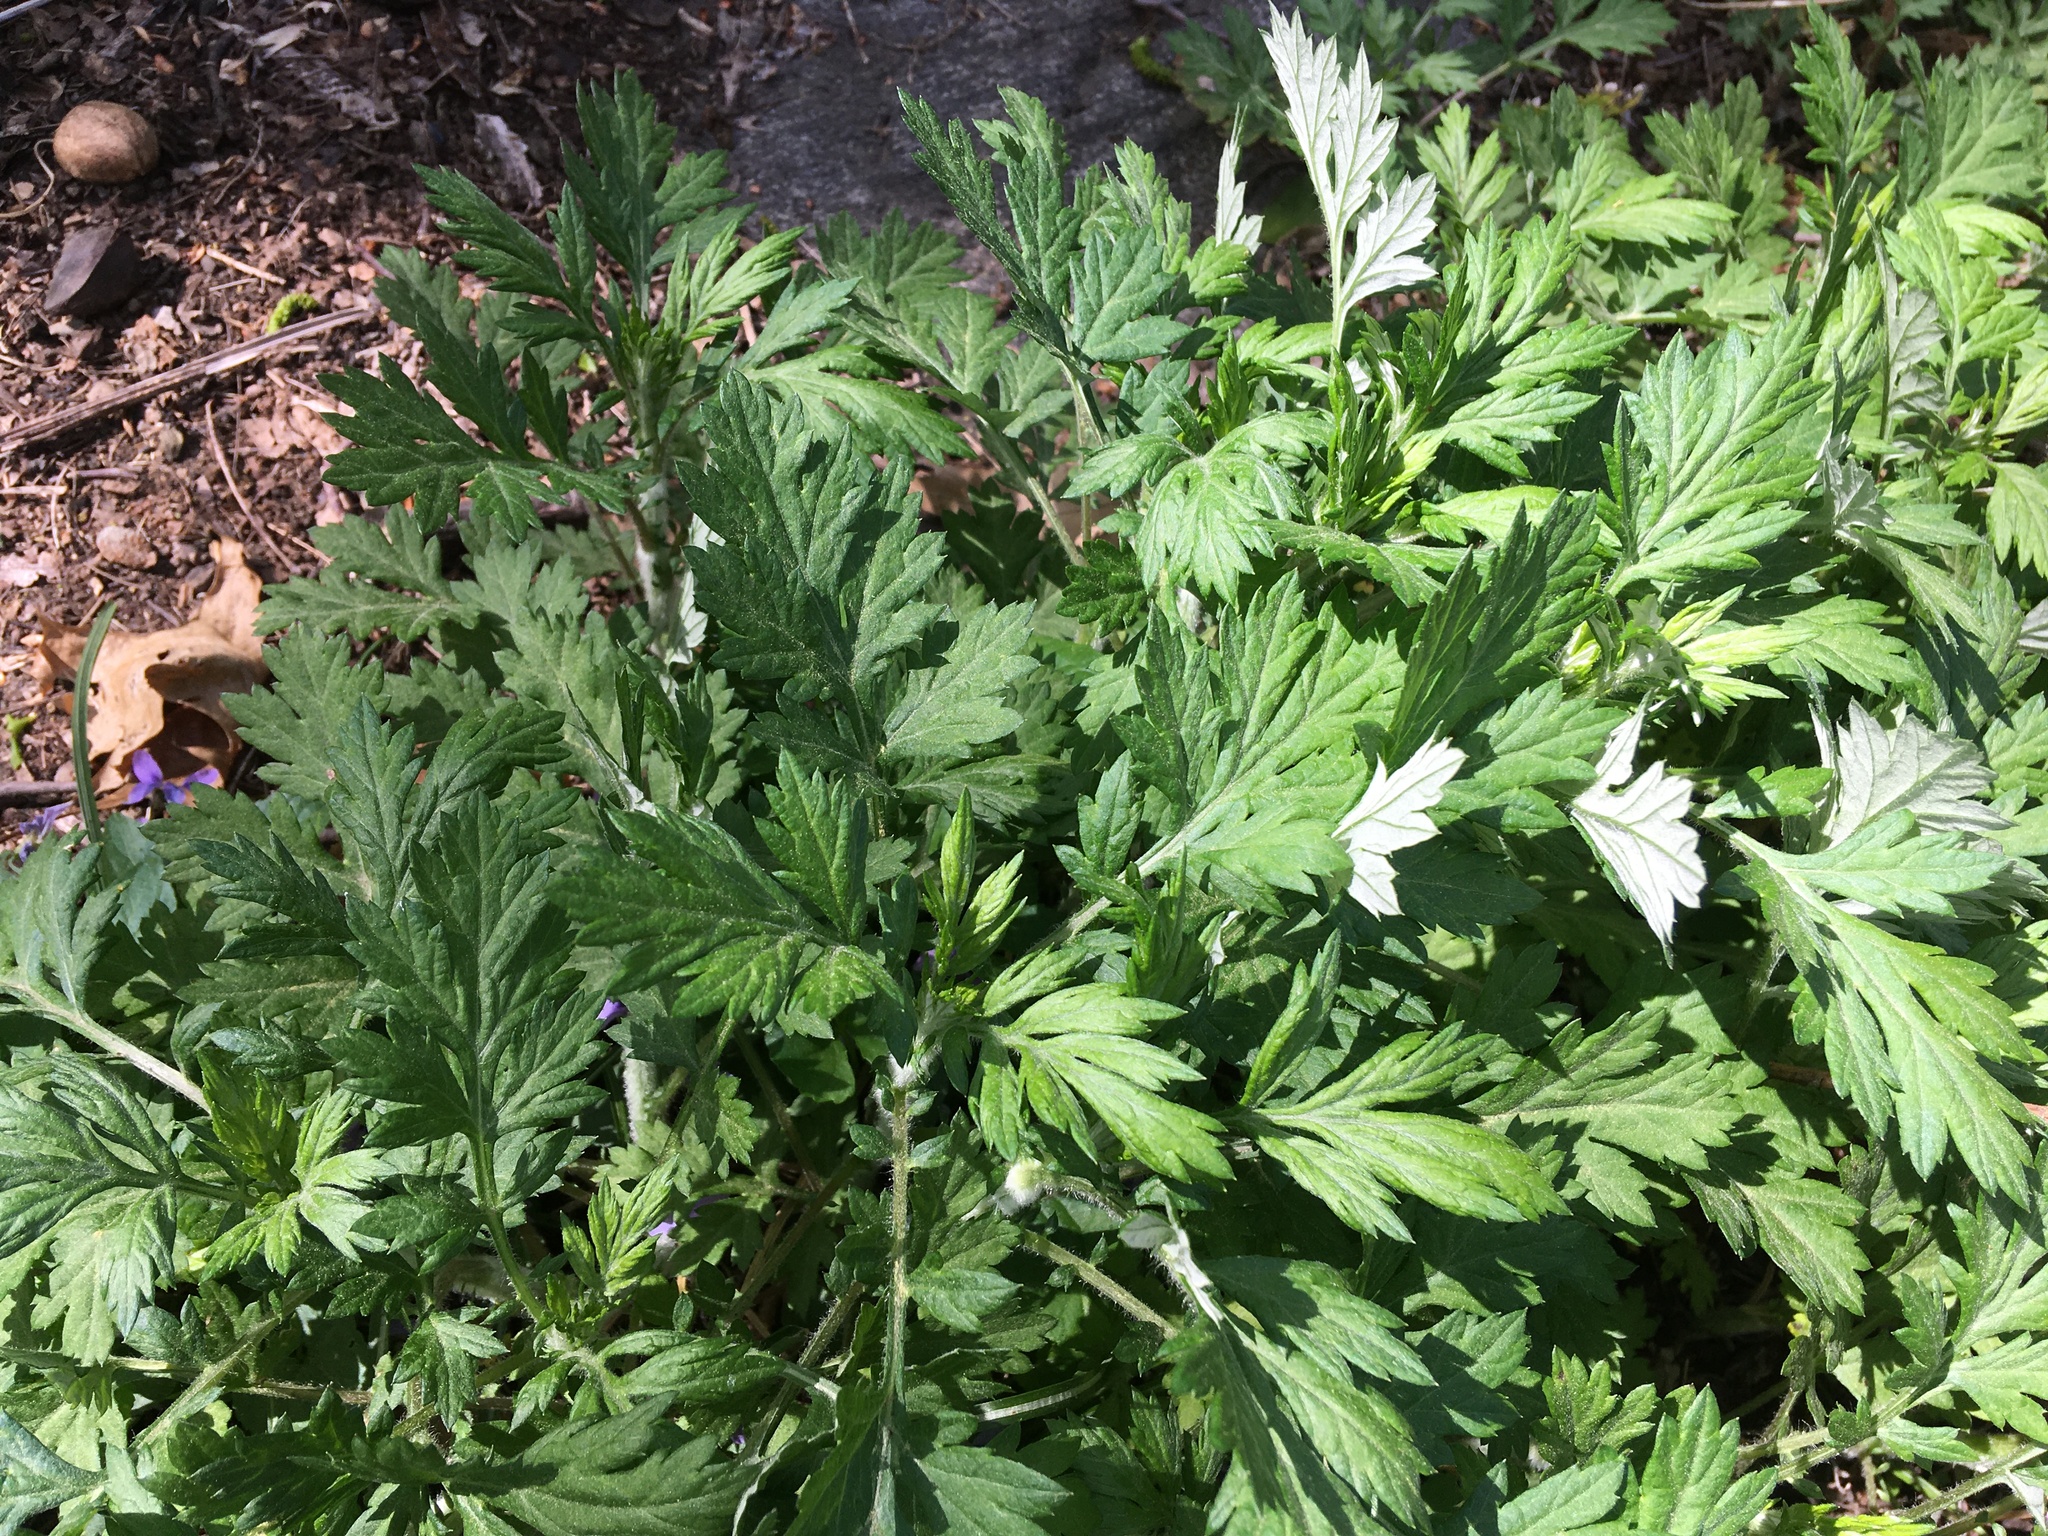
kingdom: Plantae
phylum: Tracheophyta
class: Magnoliopsida
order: Asterales
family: Asteraceae
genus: Artemisia
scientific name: Artemisia vulgaris
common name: Mugwort
